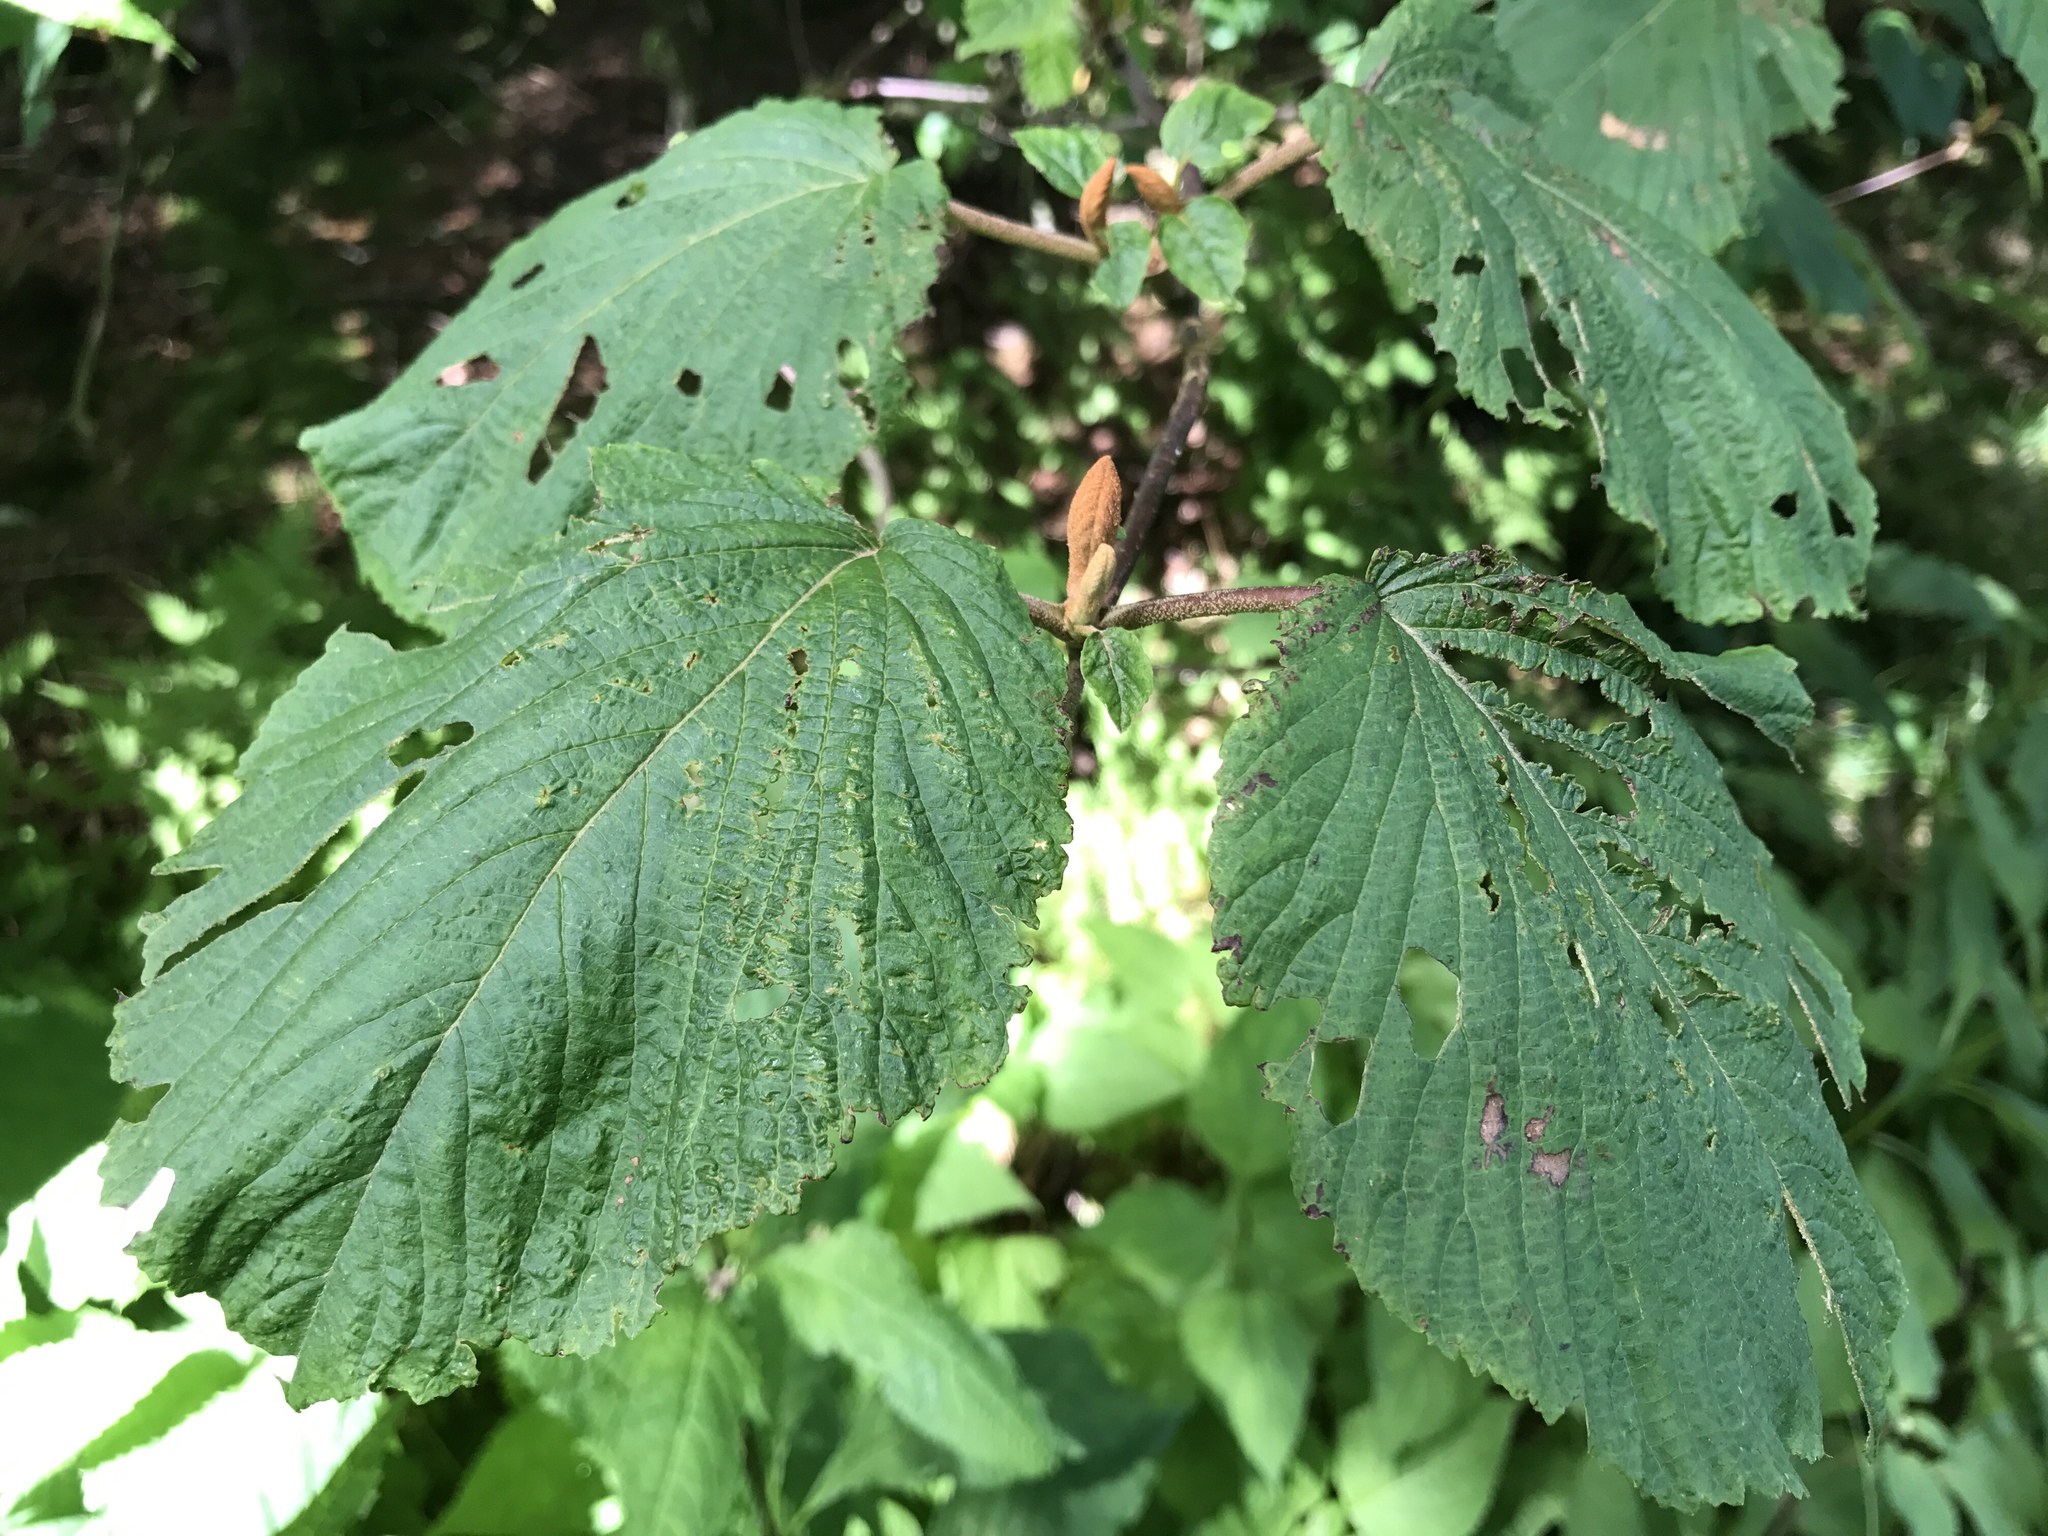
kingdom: Plantae
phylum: Tracheophyta
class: Magnoliopsida
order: Dipsacales
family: Viburnaceae
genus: Viburnum
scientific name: Viburnum lantanoides
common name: Hobblebush
